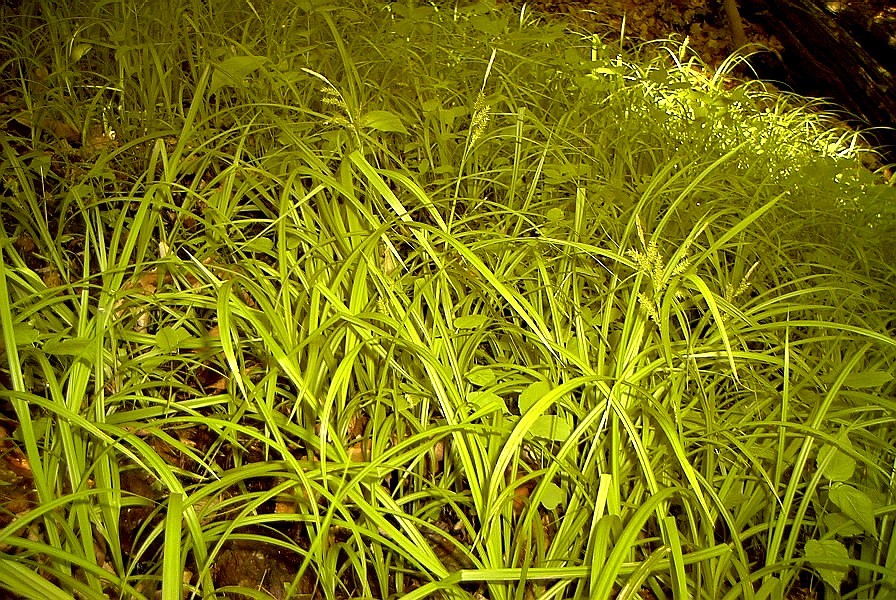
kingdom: Plantae
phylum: Tracheophyta
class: Liliopsida
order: Poales
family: Cyperaceae
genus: Carex
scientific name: Carex scabrata
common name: Eastern rough sedge
